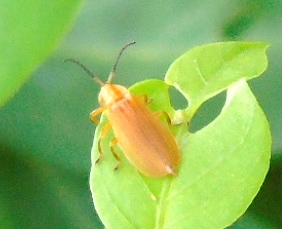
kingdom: Animalia
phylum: Arthropoda
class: Insecta
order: Coleoptera
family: Lycidae
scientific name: Lycidae
